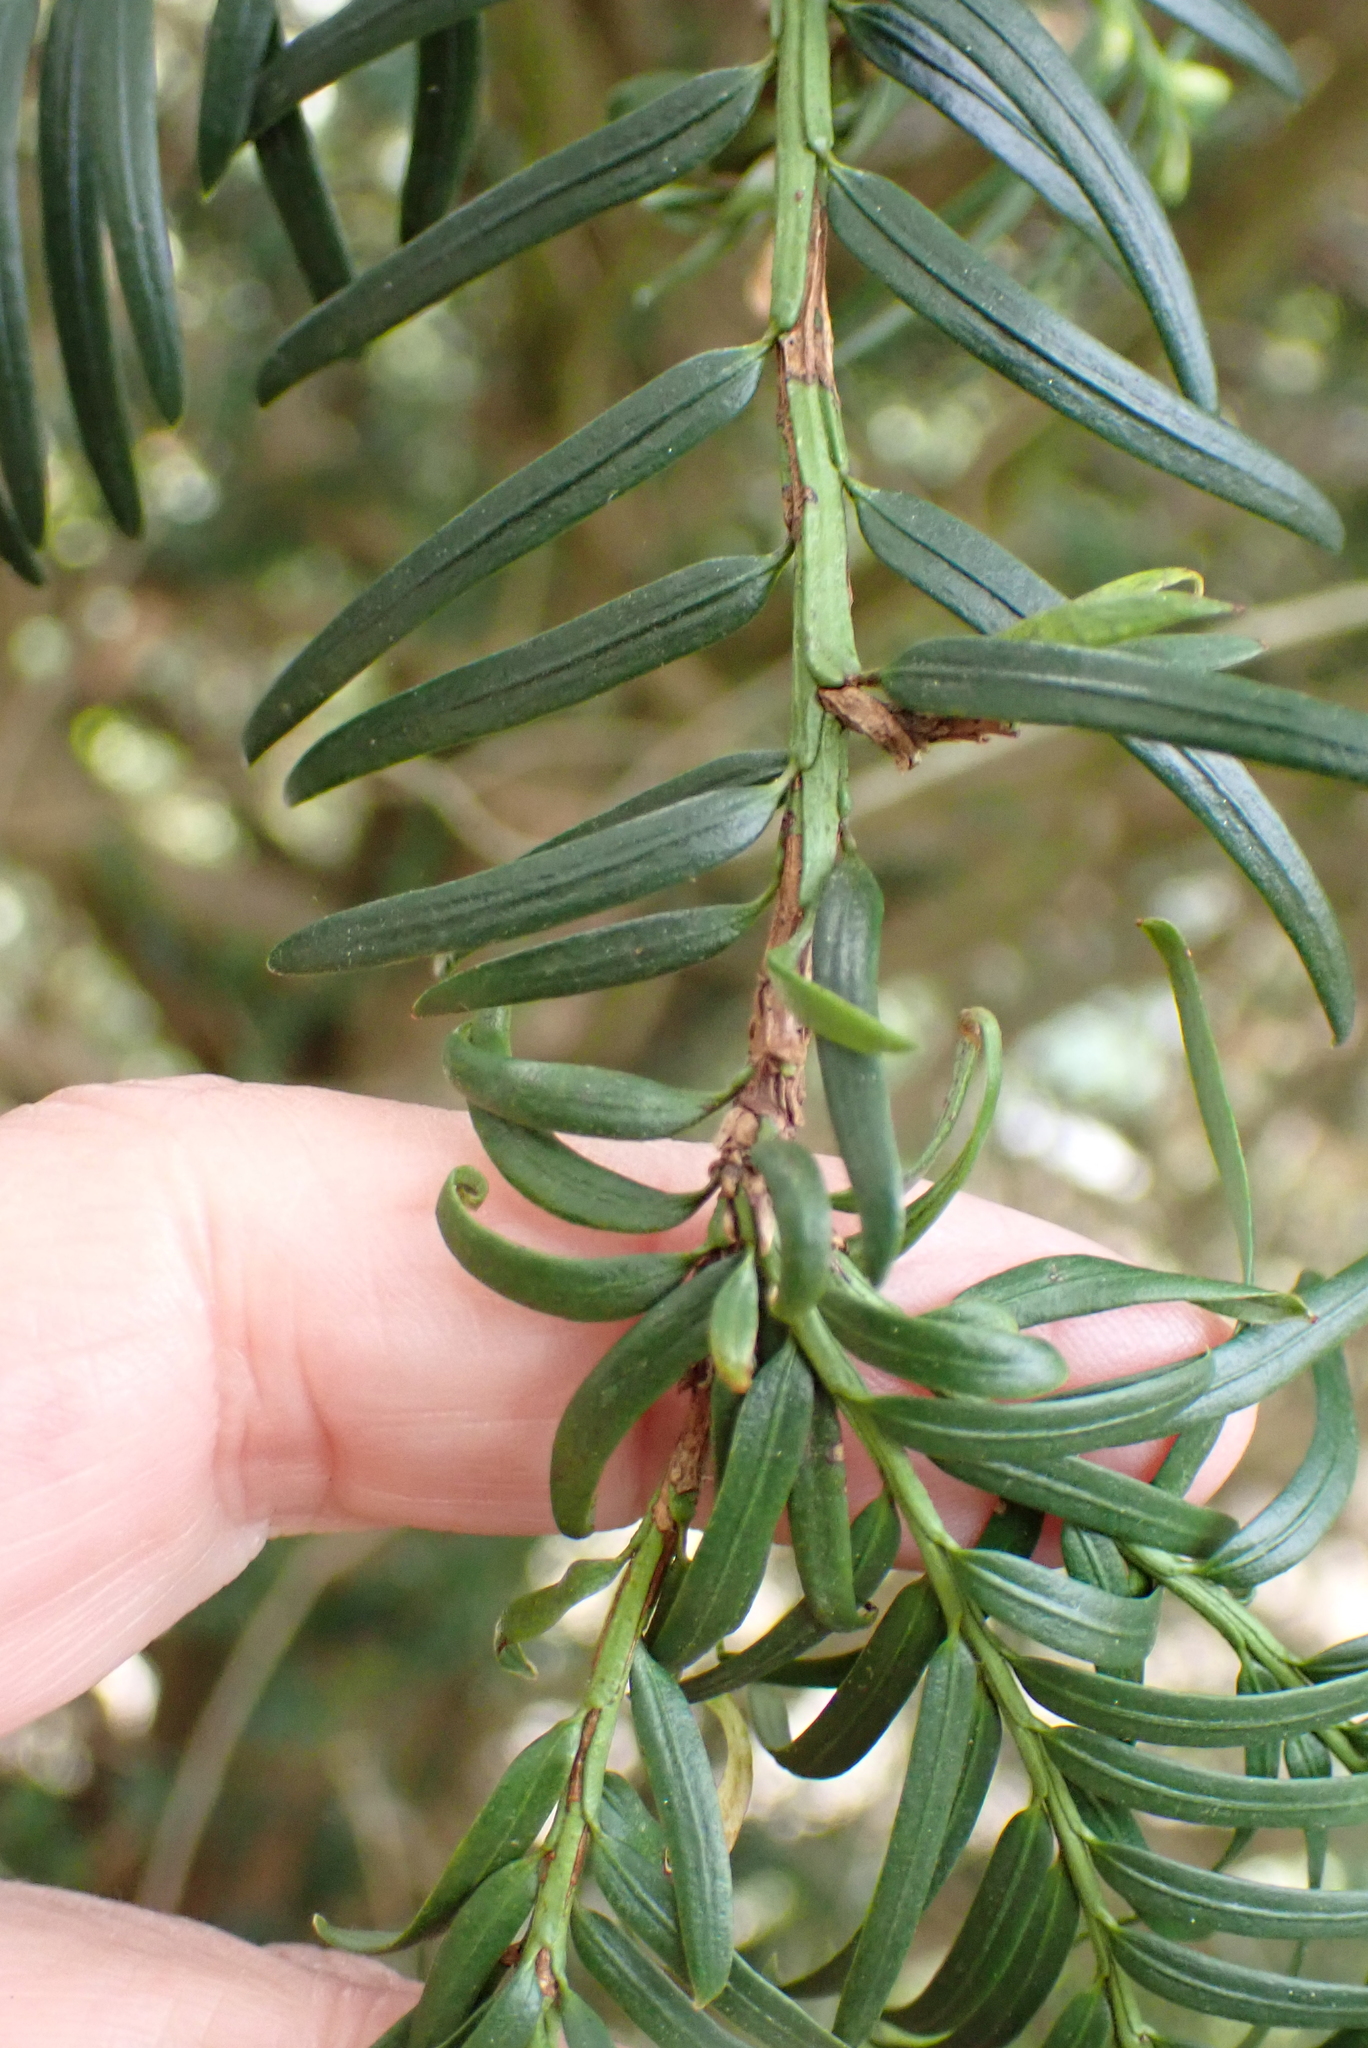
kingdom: Plantae
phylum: Tracheophyta
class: Pinopsida
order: Pinales
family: Taxaceae
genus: Taxus
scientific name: Taxus baccata
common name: Yew
